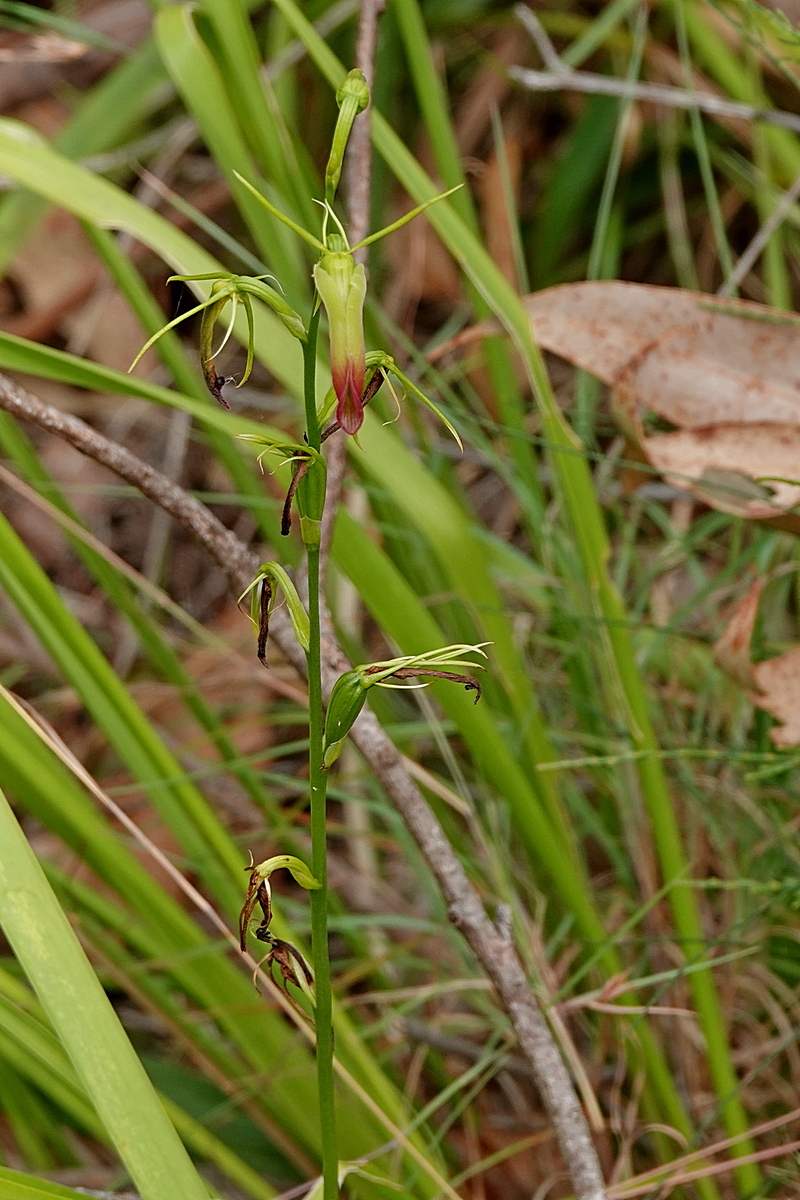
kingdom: Plantae
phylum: Tracheophyta
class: Liliopsida
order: Asparagales
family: Orchidaceae
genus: Cryptostylis
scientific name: Cryptostylis subulata
